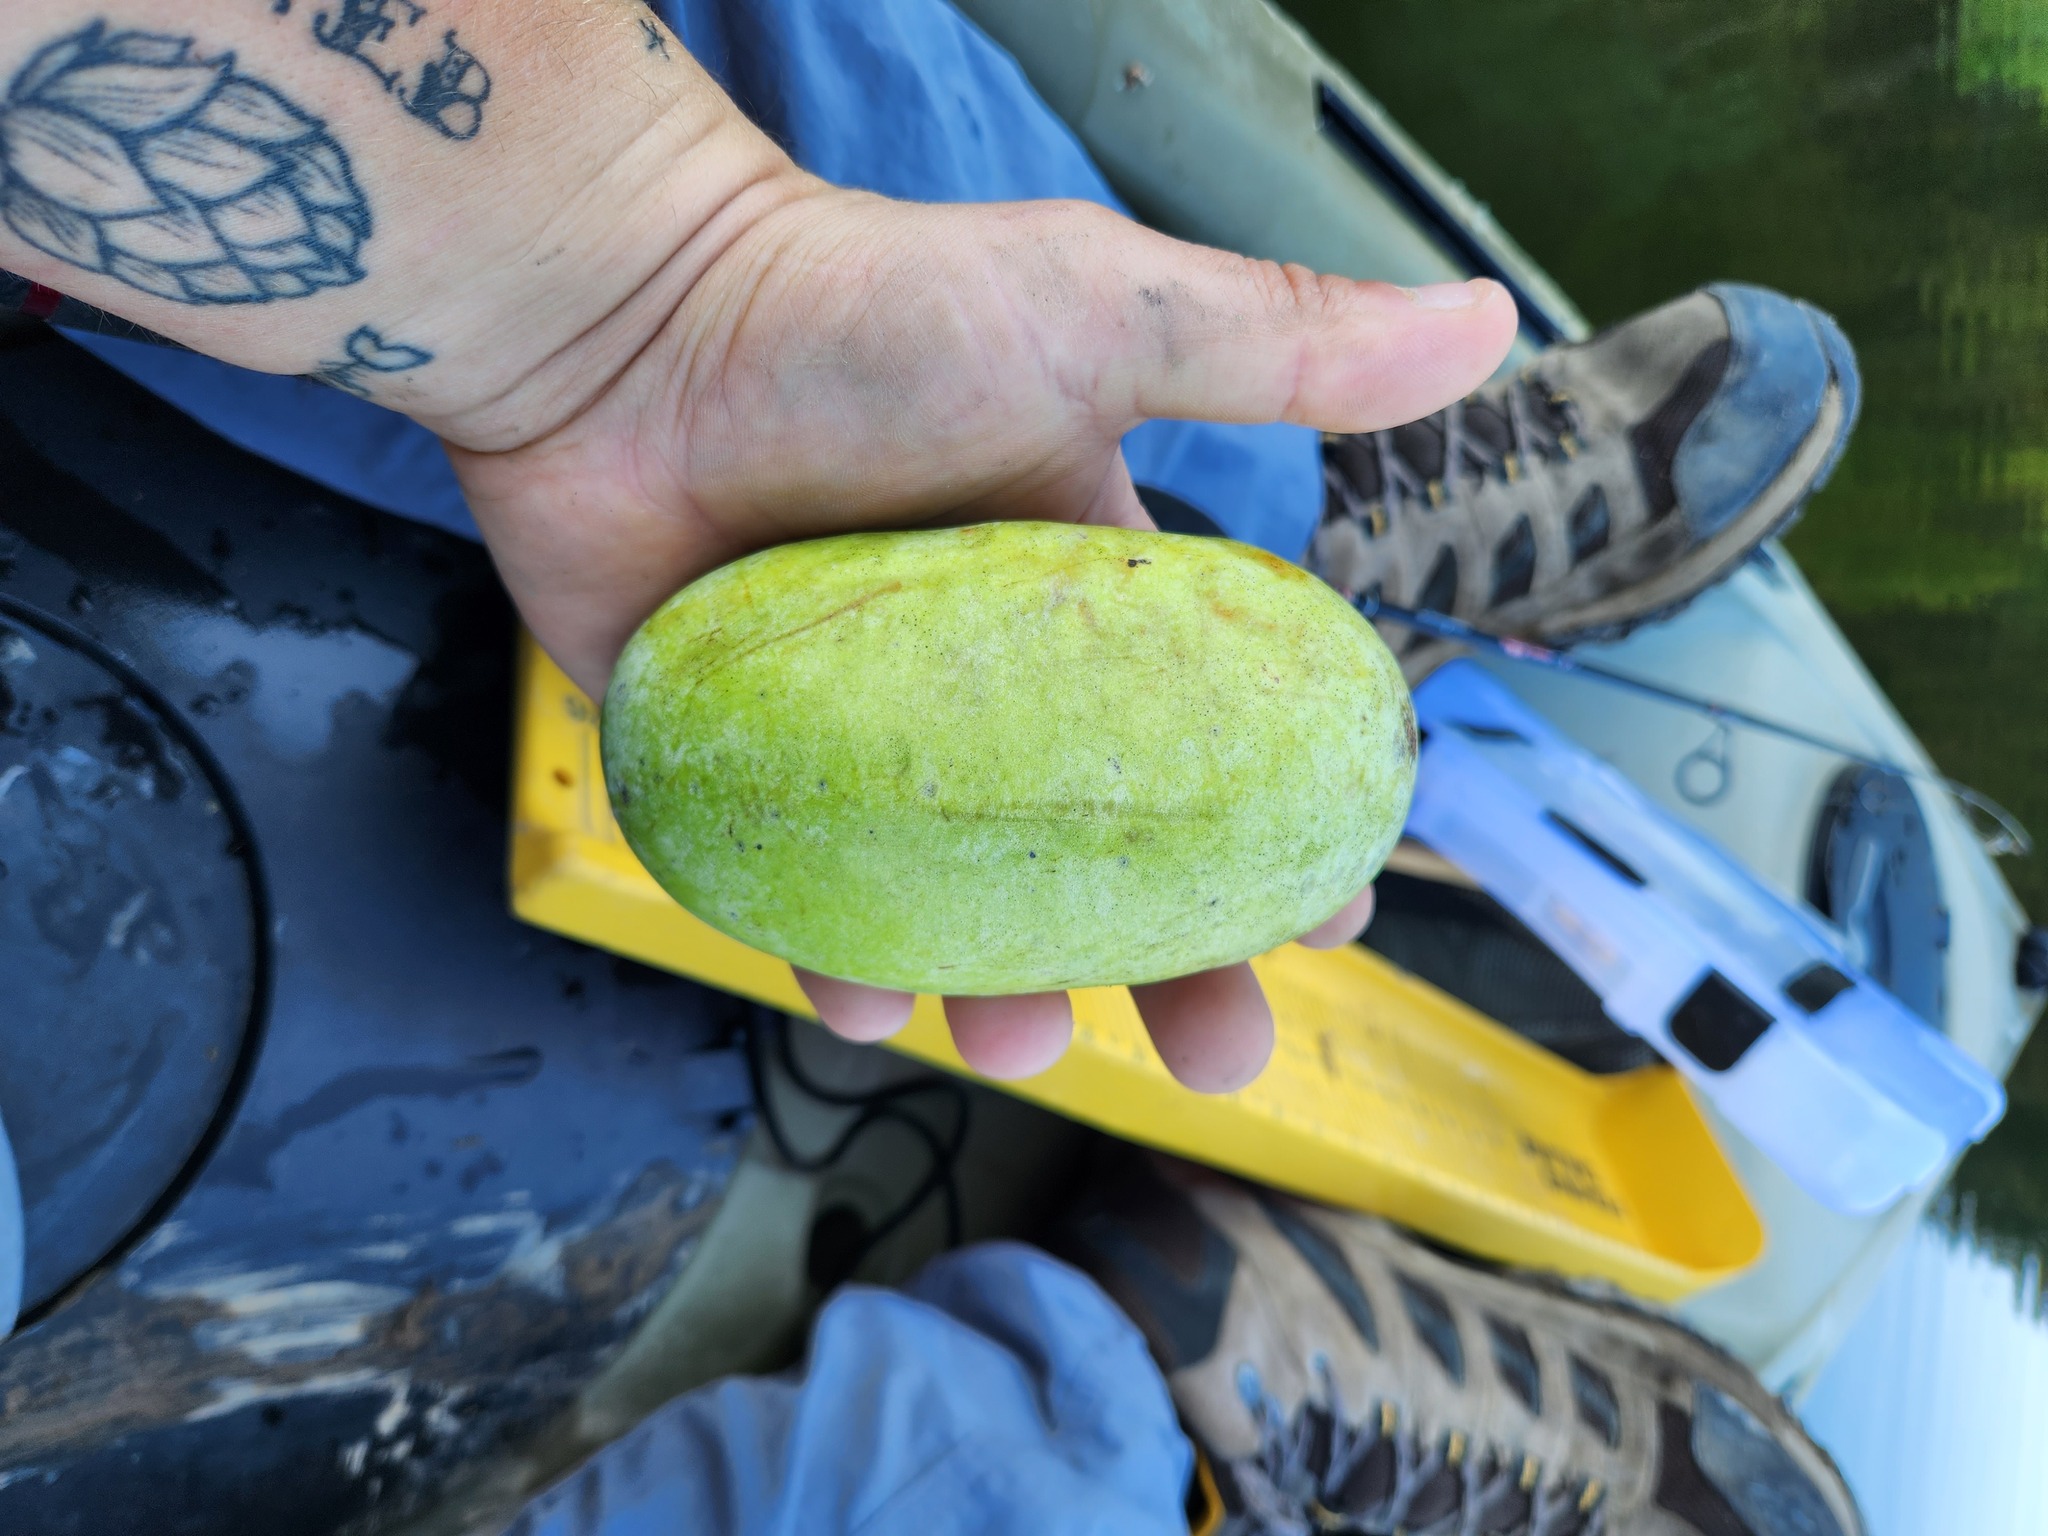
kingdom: Plantae
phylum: Tracheophyta
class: Magnoliopsida
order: Magnoliales
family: Annonaceae
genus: Asimina
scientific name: Asimina triloba
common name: Dog-banana
